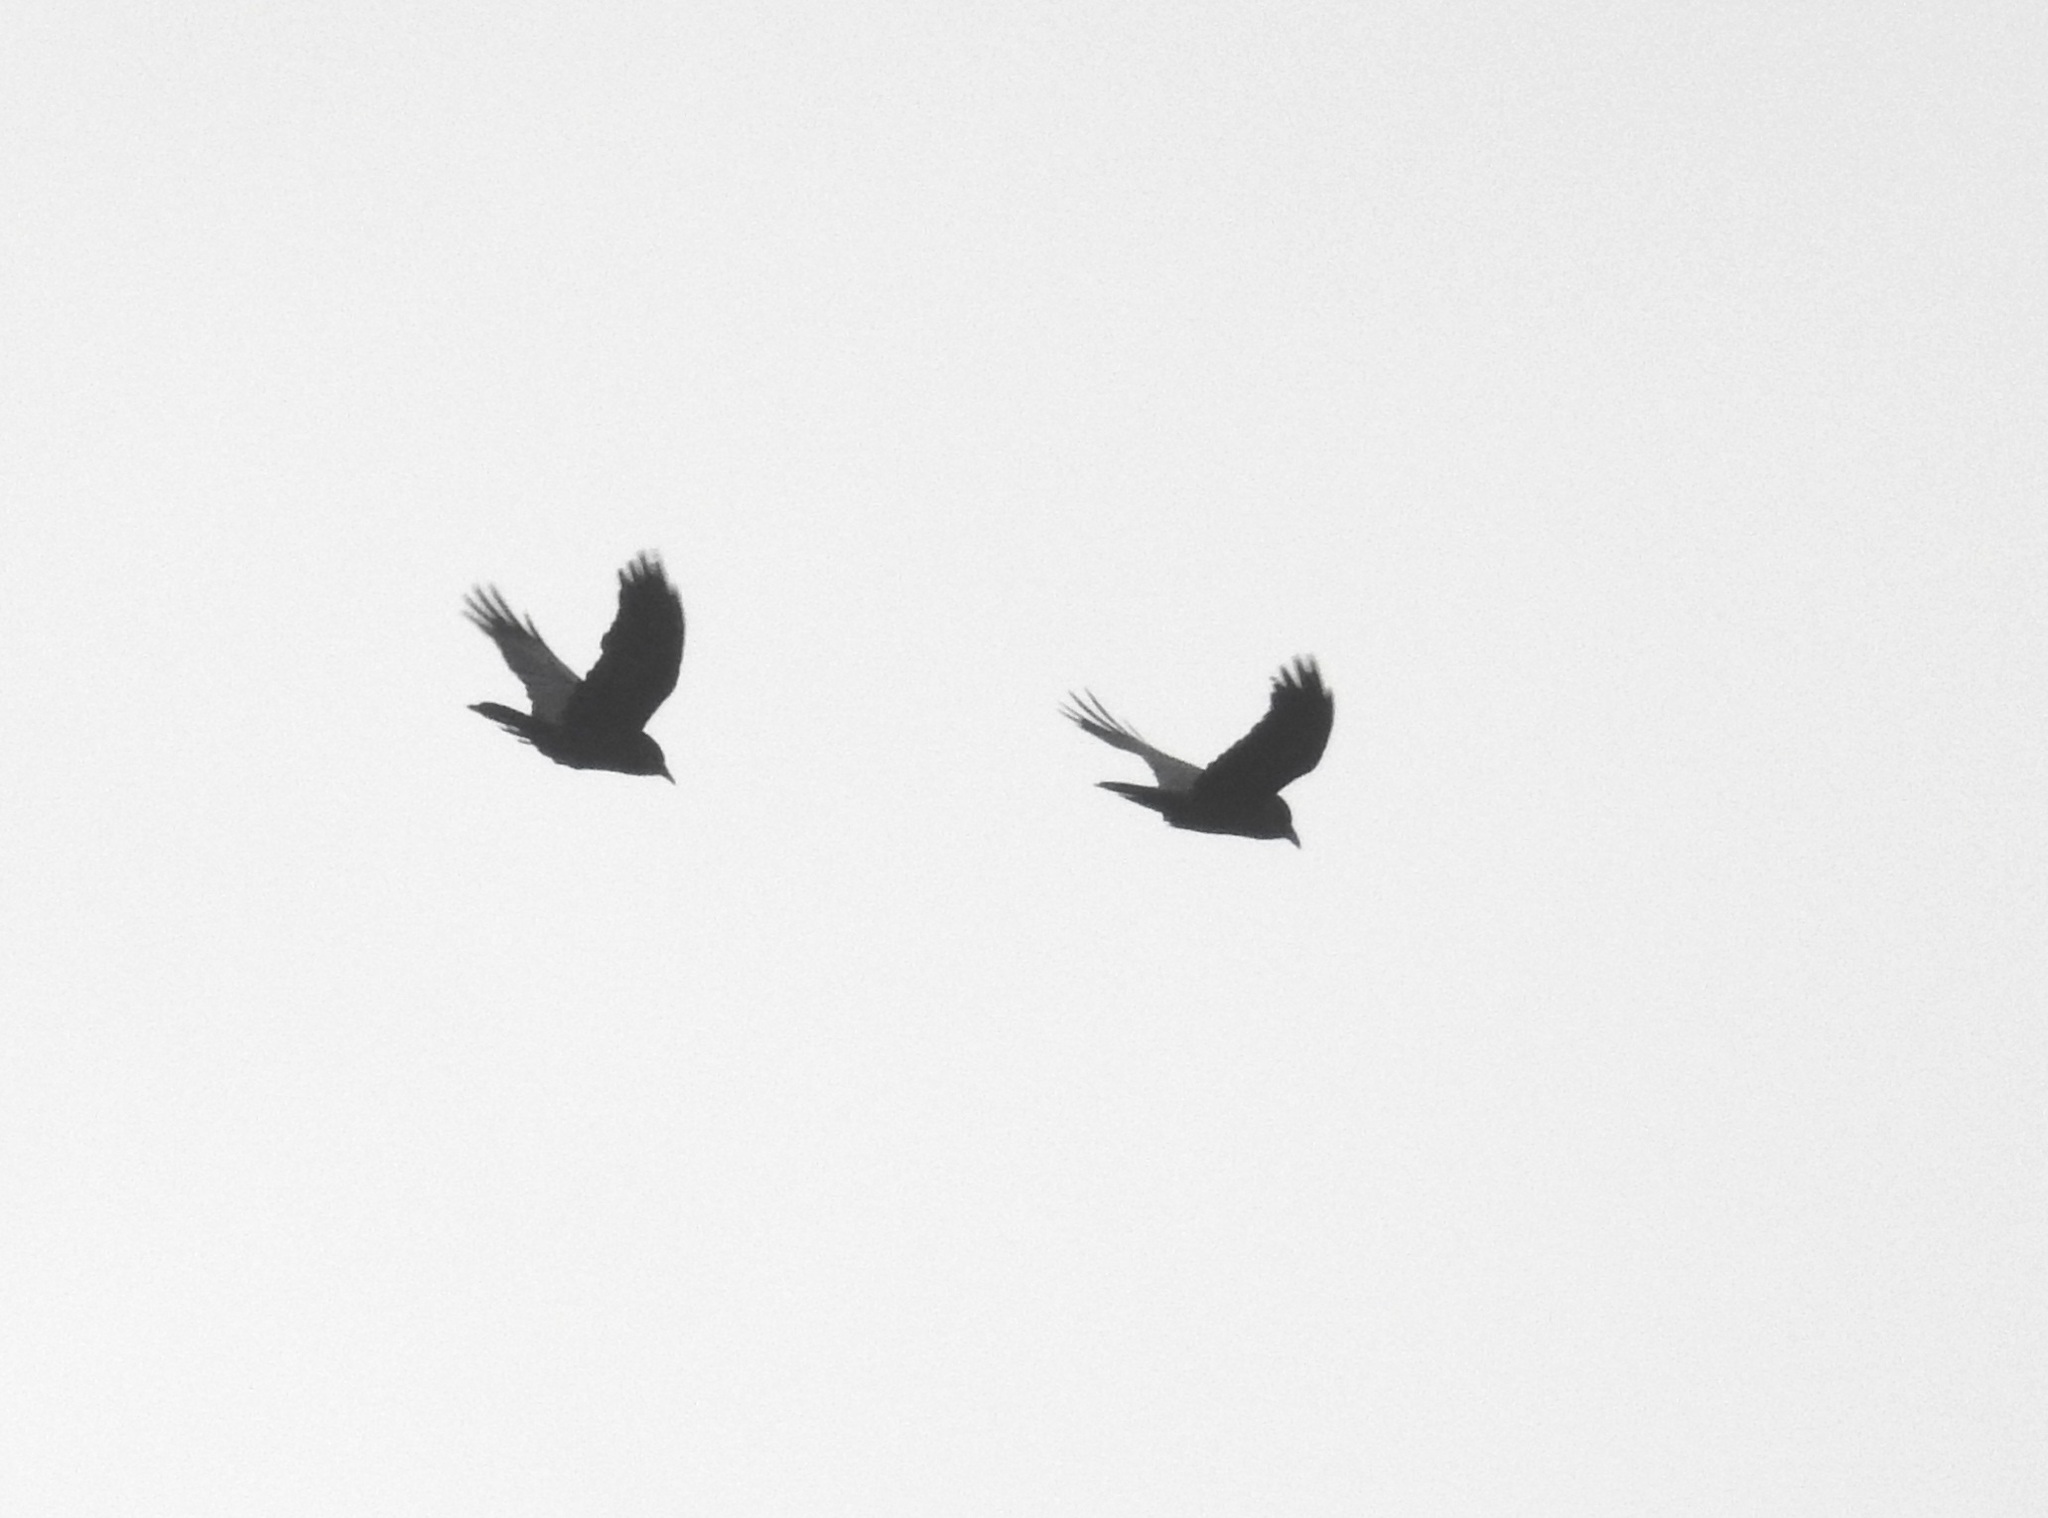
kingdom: Animalia
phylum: Chordata
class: Aves
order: Passeriformes
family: Corvidae
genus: Pyrrhocorax
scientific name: Pyrrhocorax pyrrhocorax
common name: Red-billed chough
